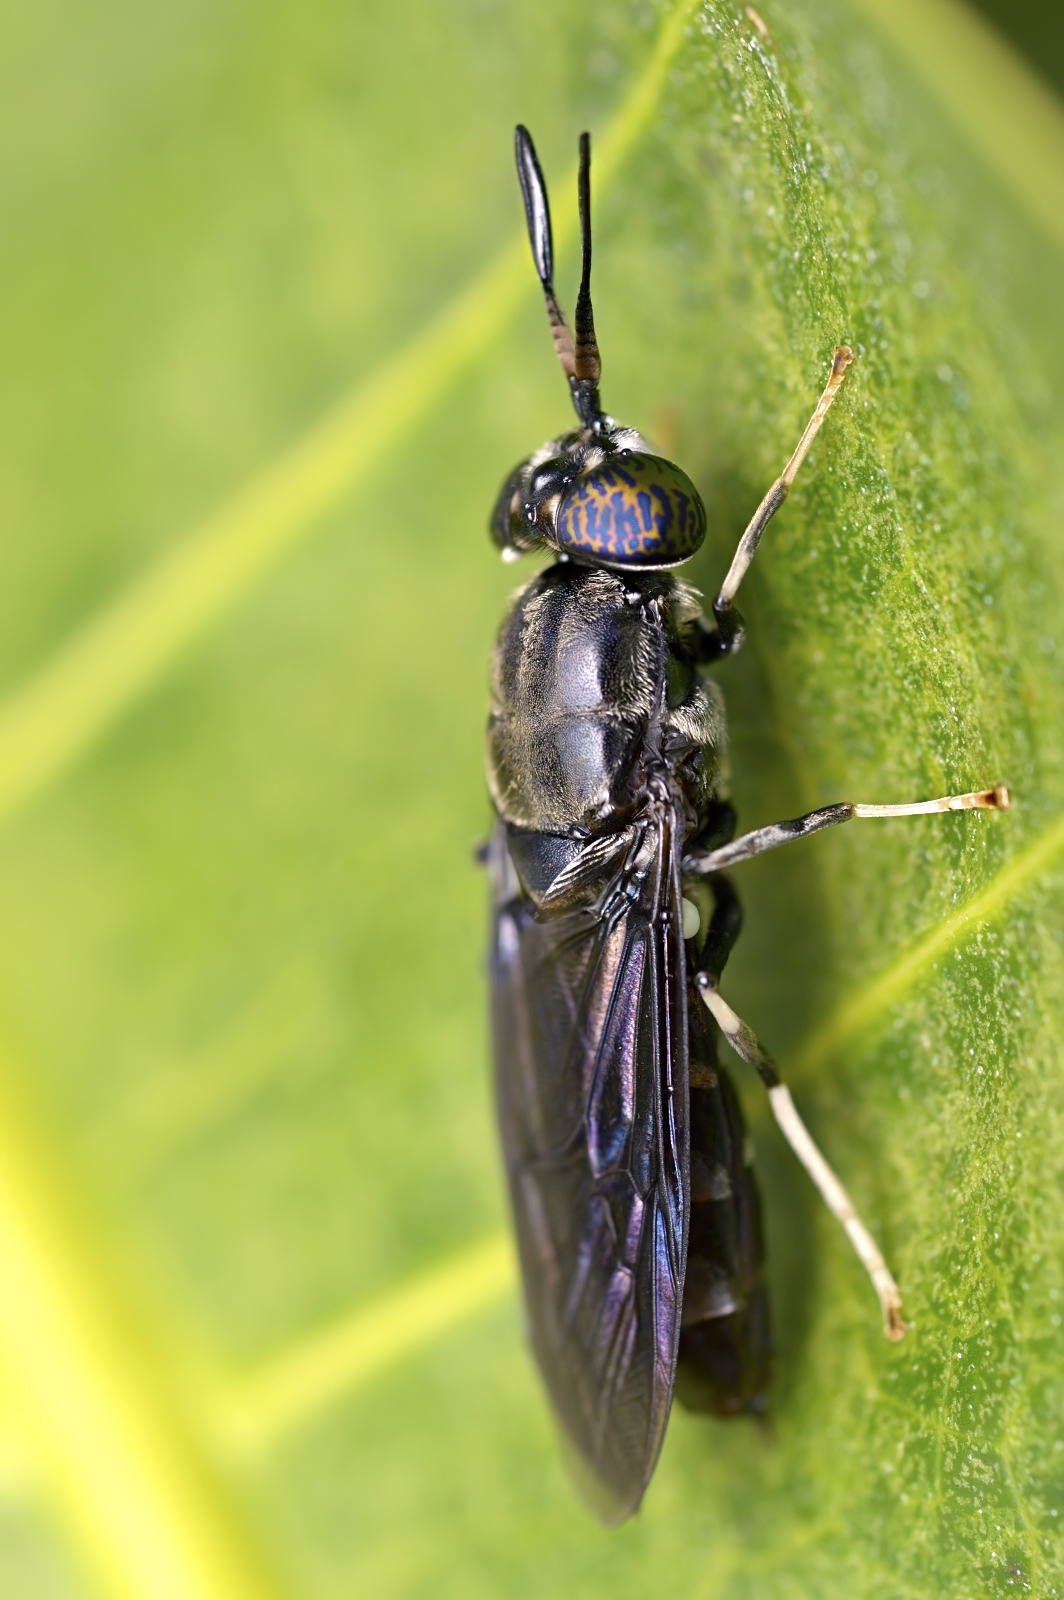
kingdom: Animalia
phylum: Arthropoda
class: Insecta
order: Diptera
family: Stratiomyidae
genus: Hermetia
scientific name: Hermetia illucens
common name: Black soldier fly
